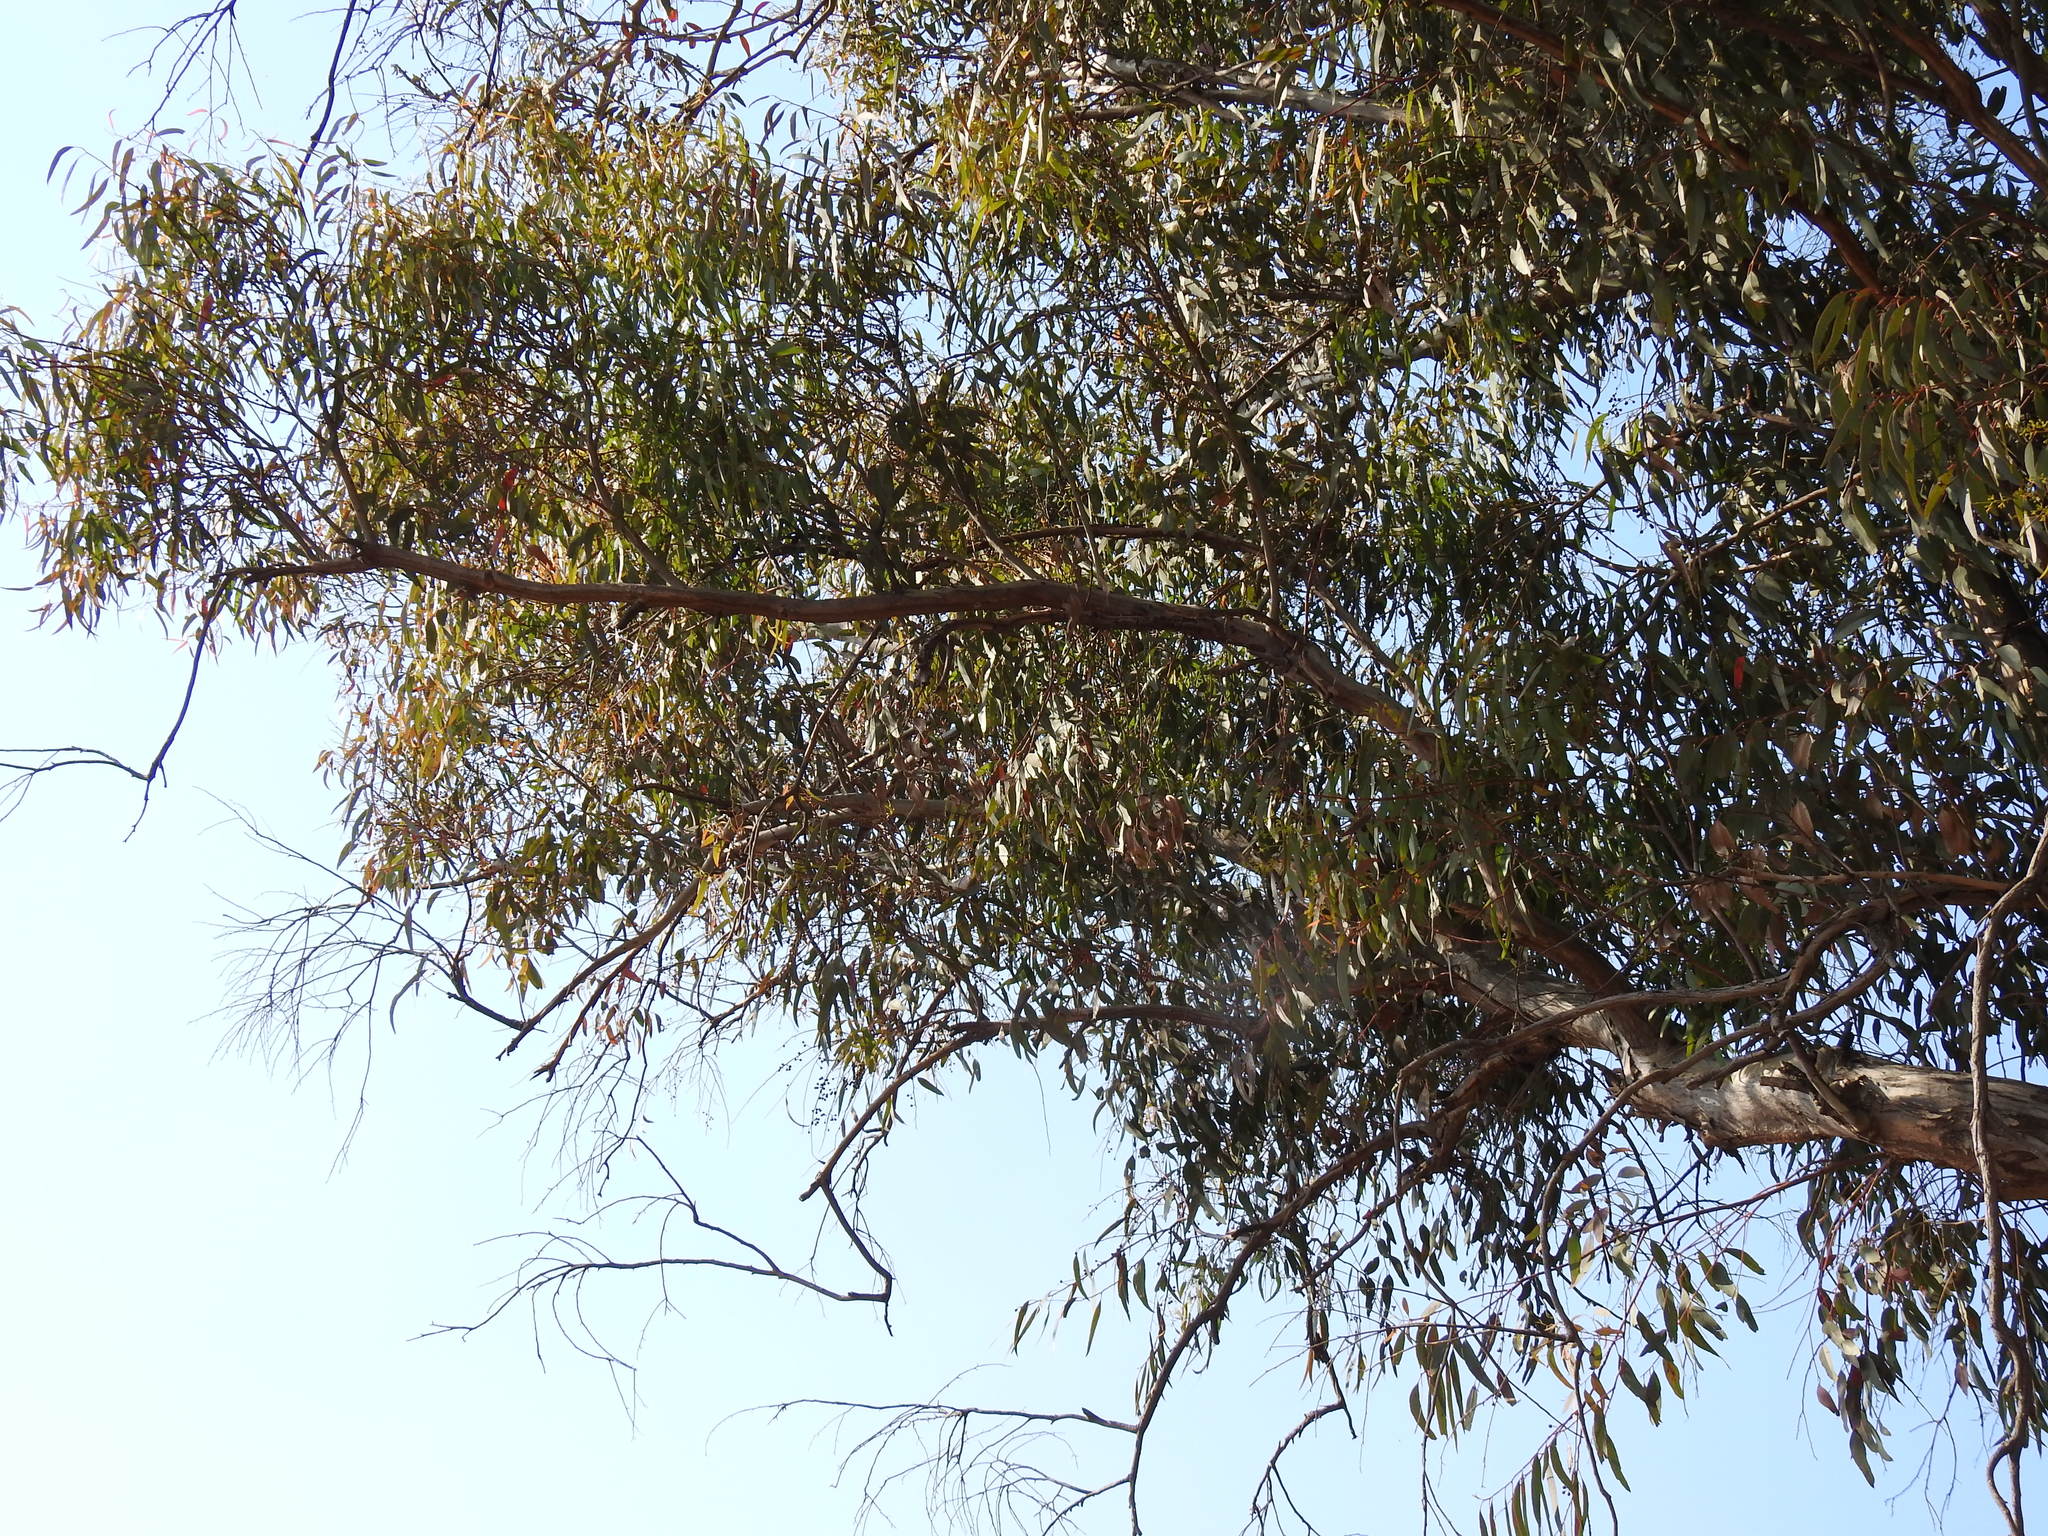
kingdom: Plantae
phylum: Tracheophyta
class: Magnoliopsida
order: Myrtales
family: Myrtaceae
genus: Eucalyptus
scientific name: Eucalyptus melliodora
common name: Yellow ironbox
